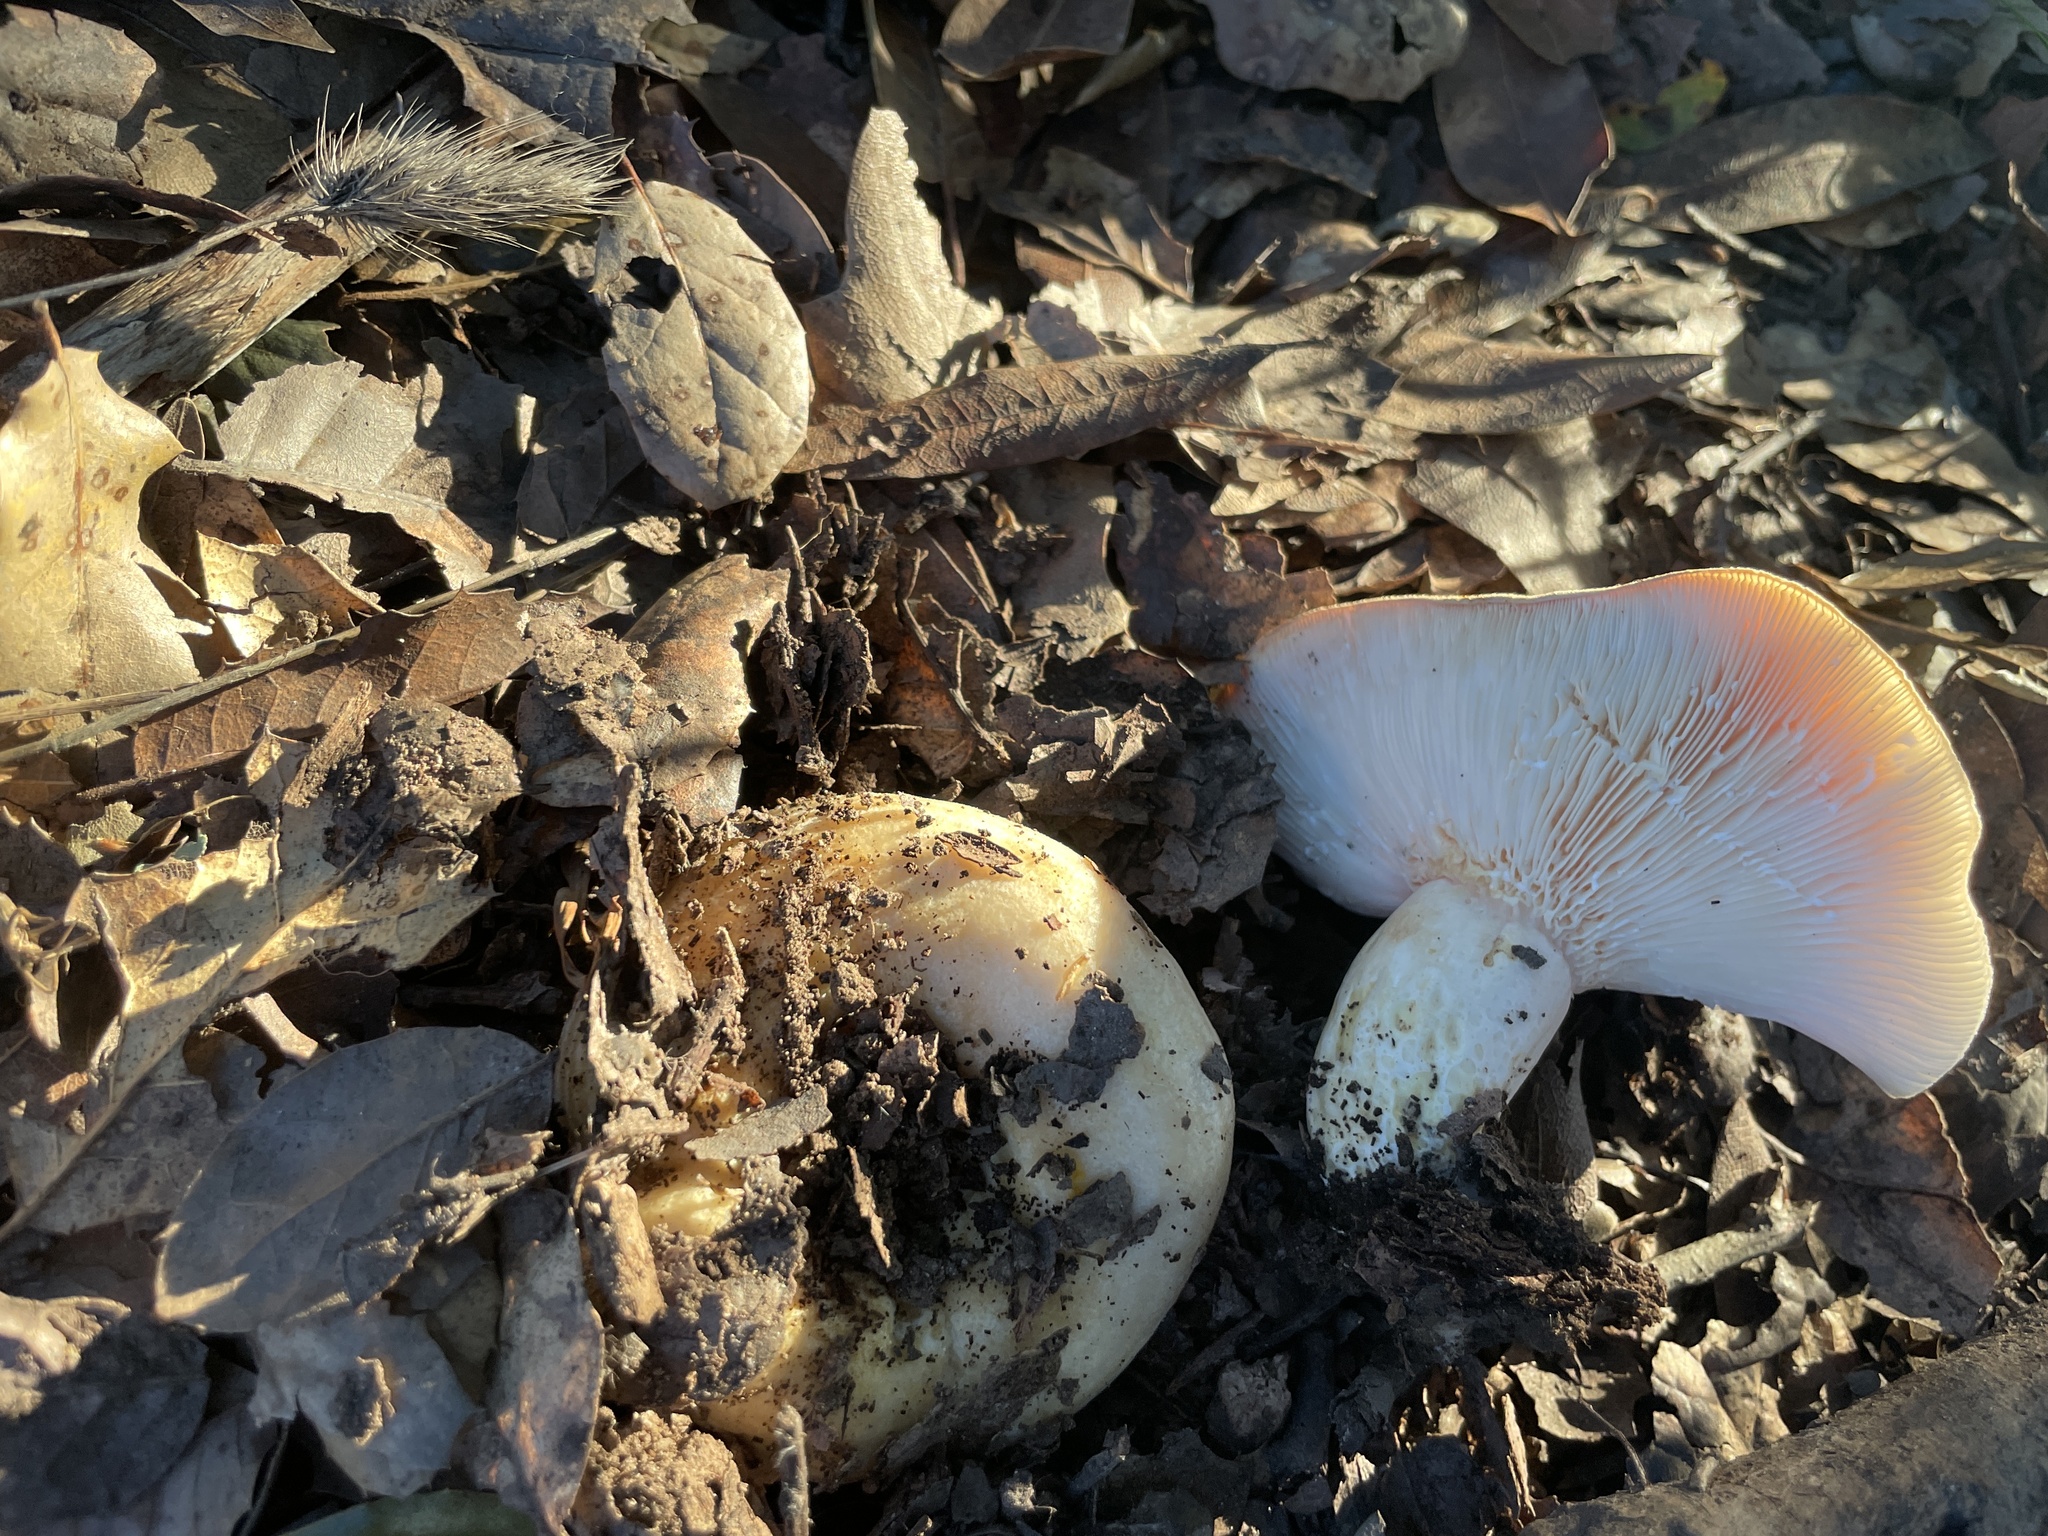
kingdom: Fungi
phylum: Basidiomycota
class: Agaricomycetes
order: Russulales
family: Russulaceae
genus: Lactarius
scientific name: Lactarius alnicola
